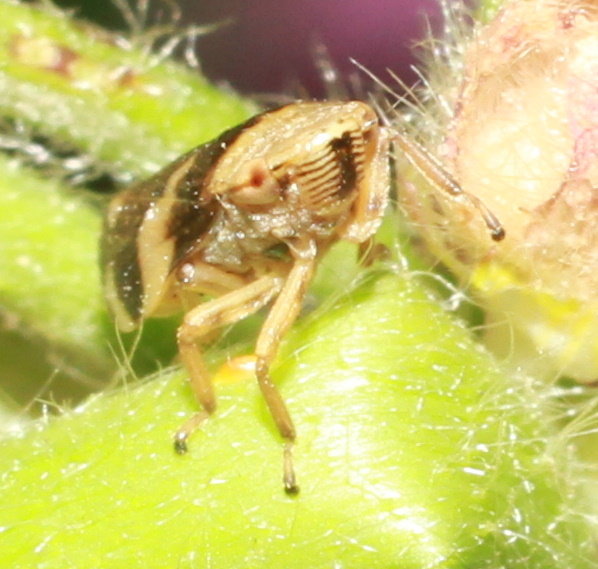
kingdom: Animalia
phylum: Arthropoda
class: Insecta
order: Hemiptera
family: Aphrophoridae
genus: Philaenus
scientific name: Philaenus spumarius
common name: Meadow spittlebug
